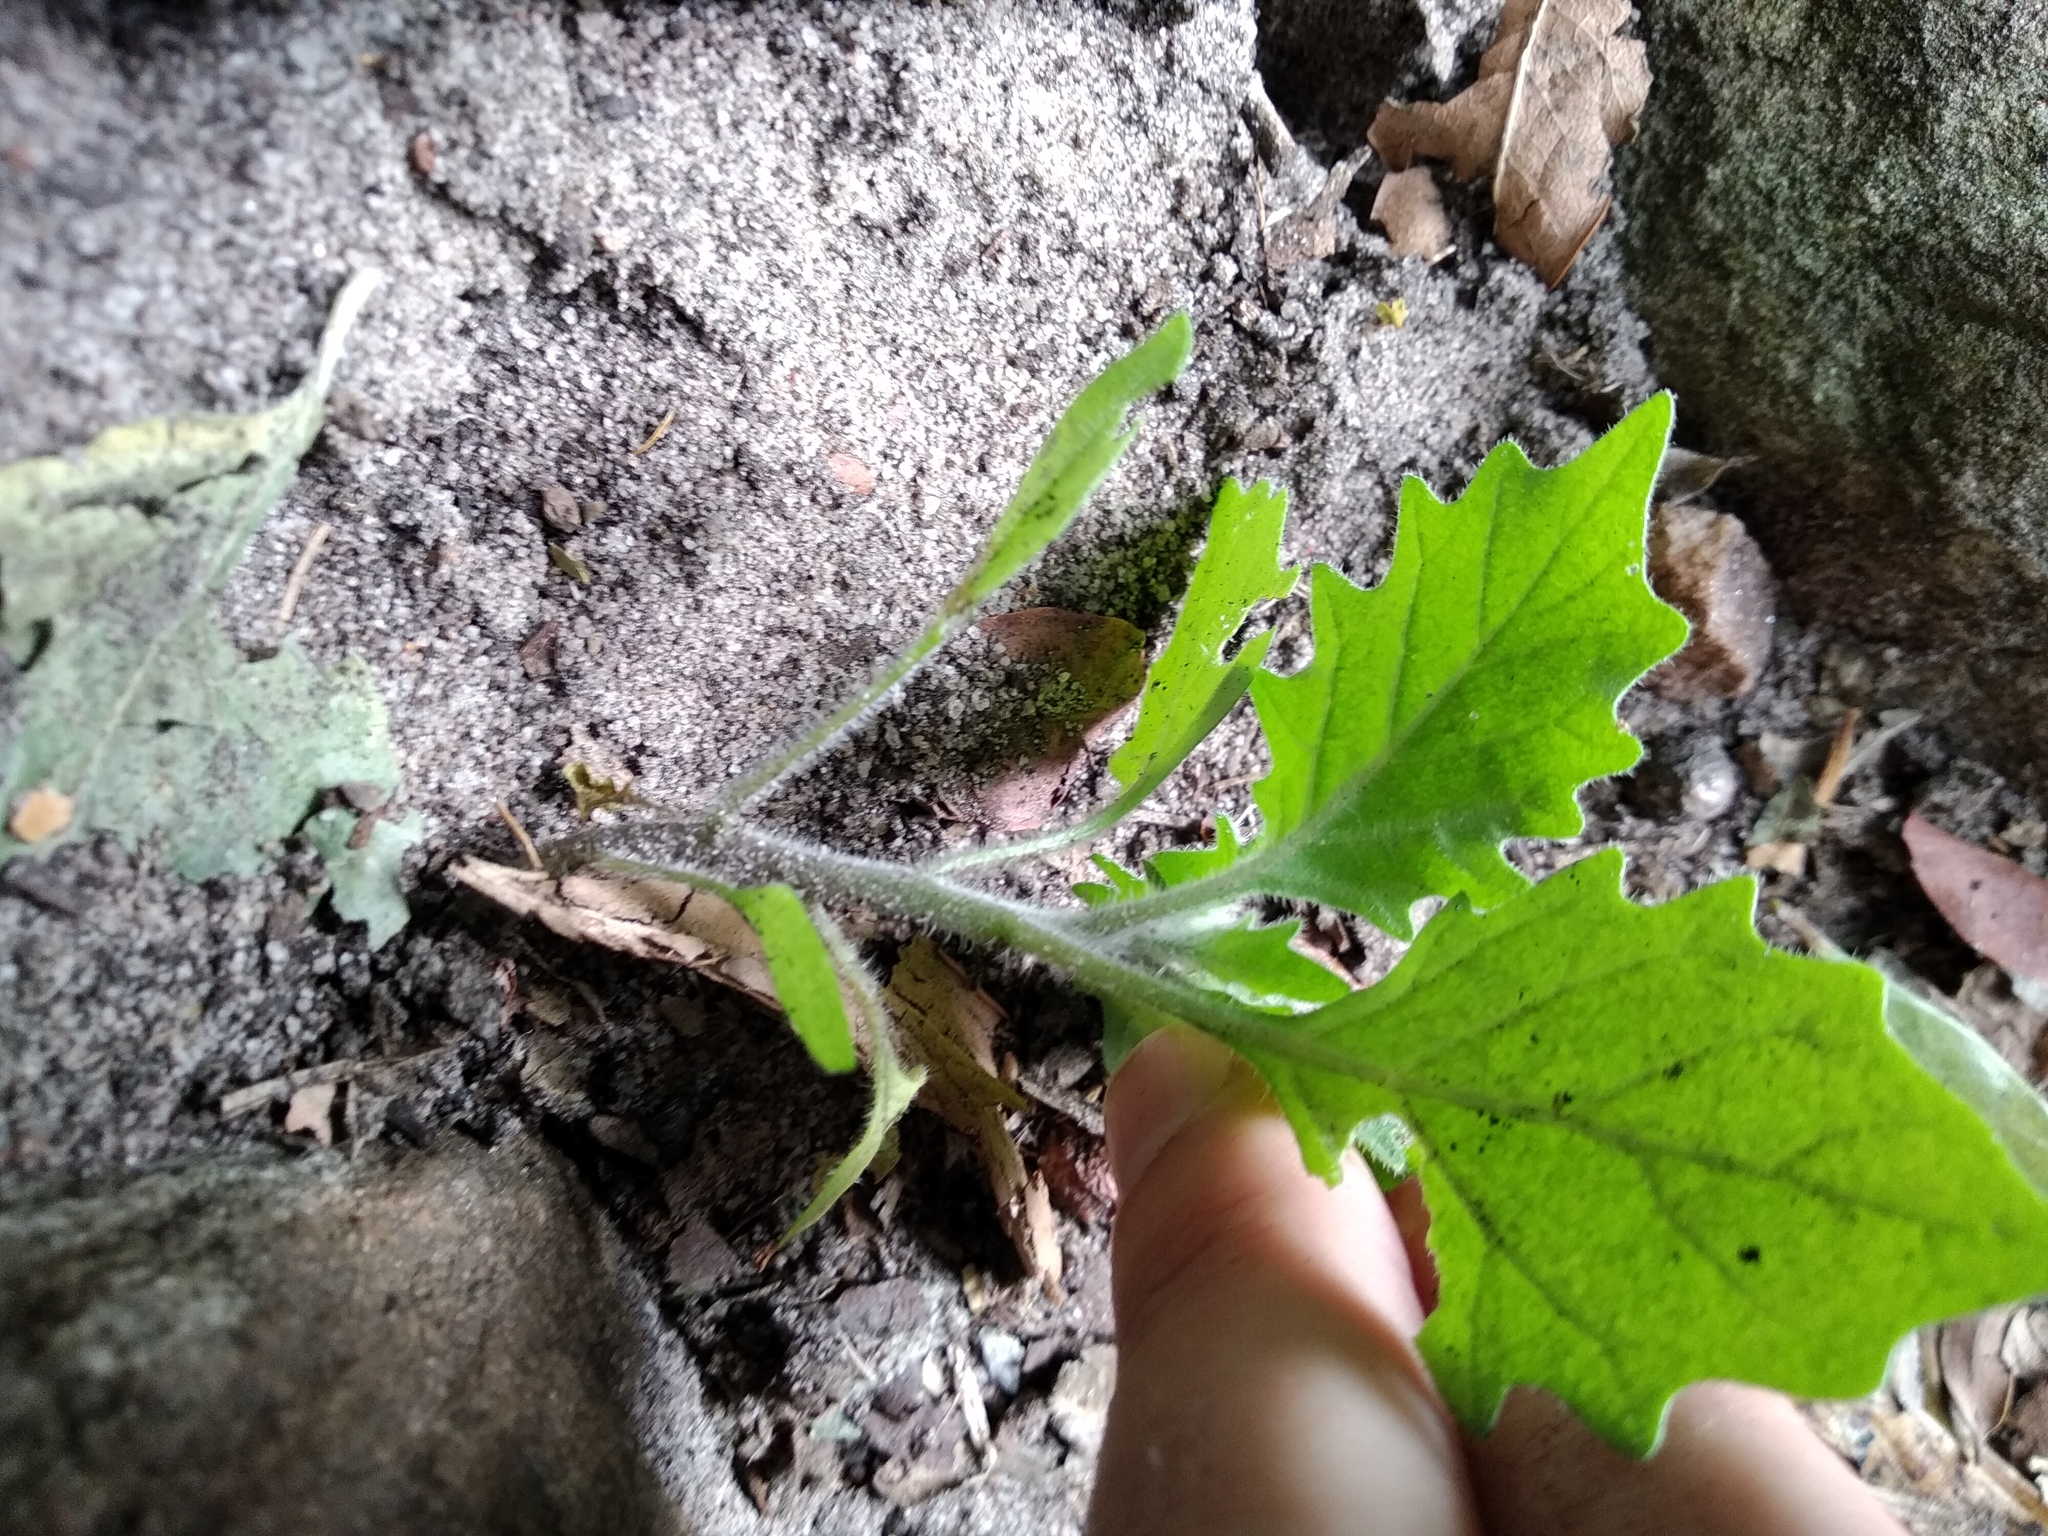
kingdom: Plantae
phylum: Tracheophyta
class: Magnoliopsida
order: Solanales
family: Solanaceae
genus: Solanum
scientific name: Solanum retroflexum
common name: Wonderberry
